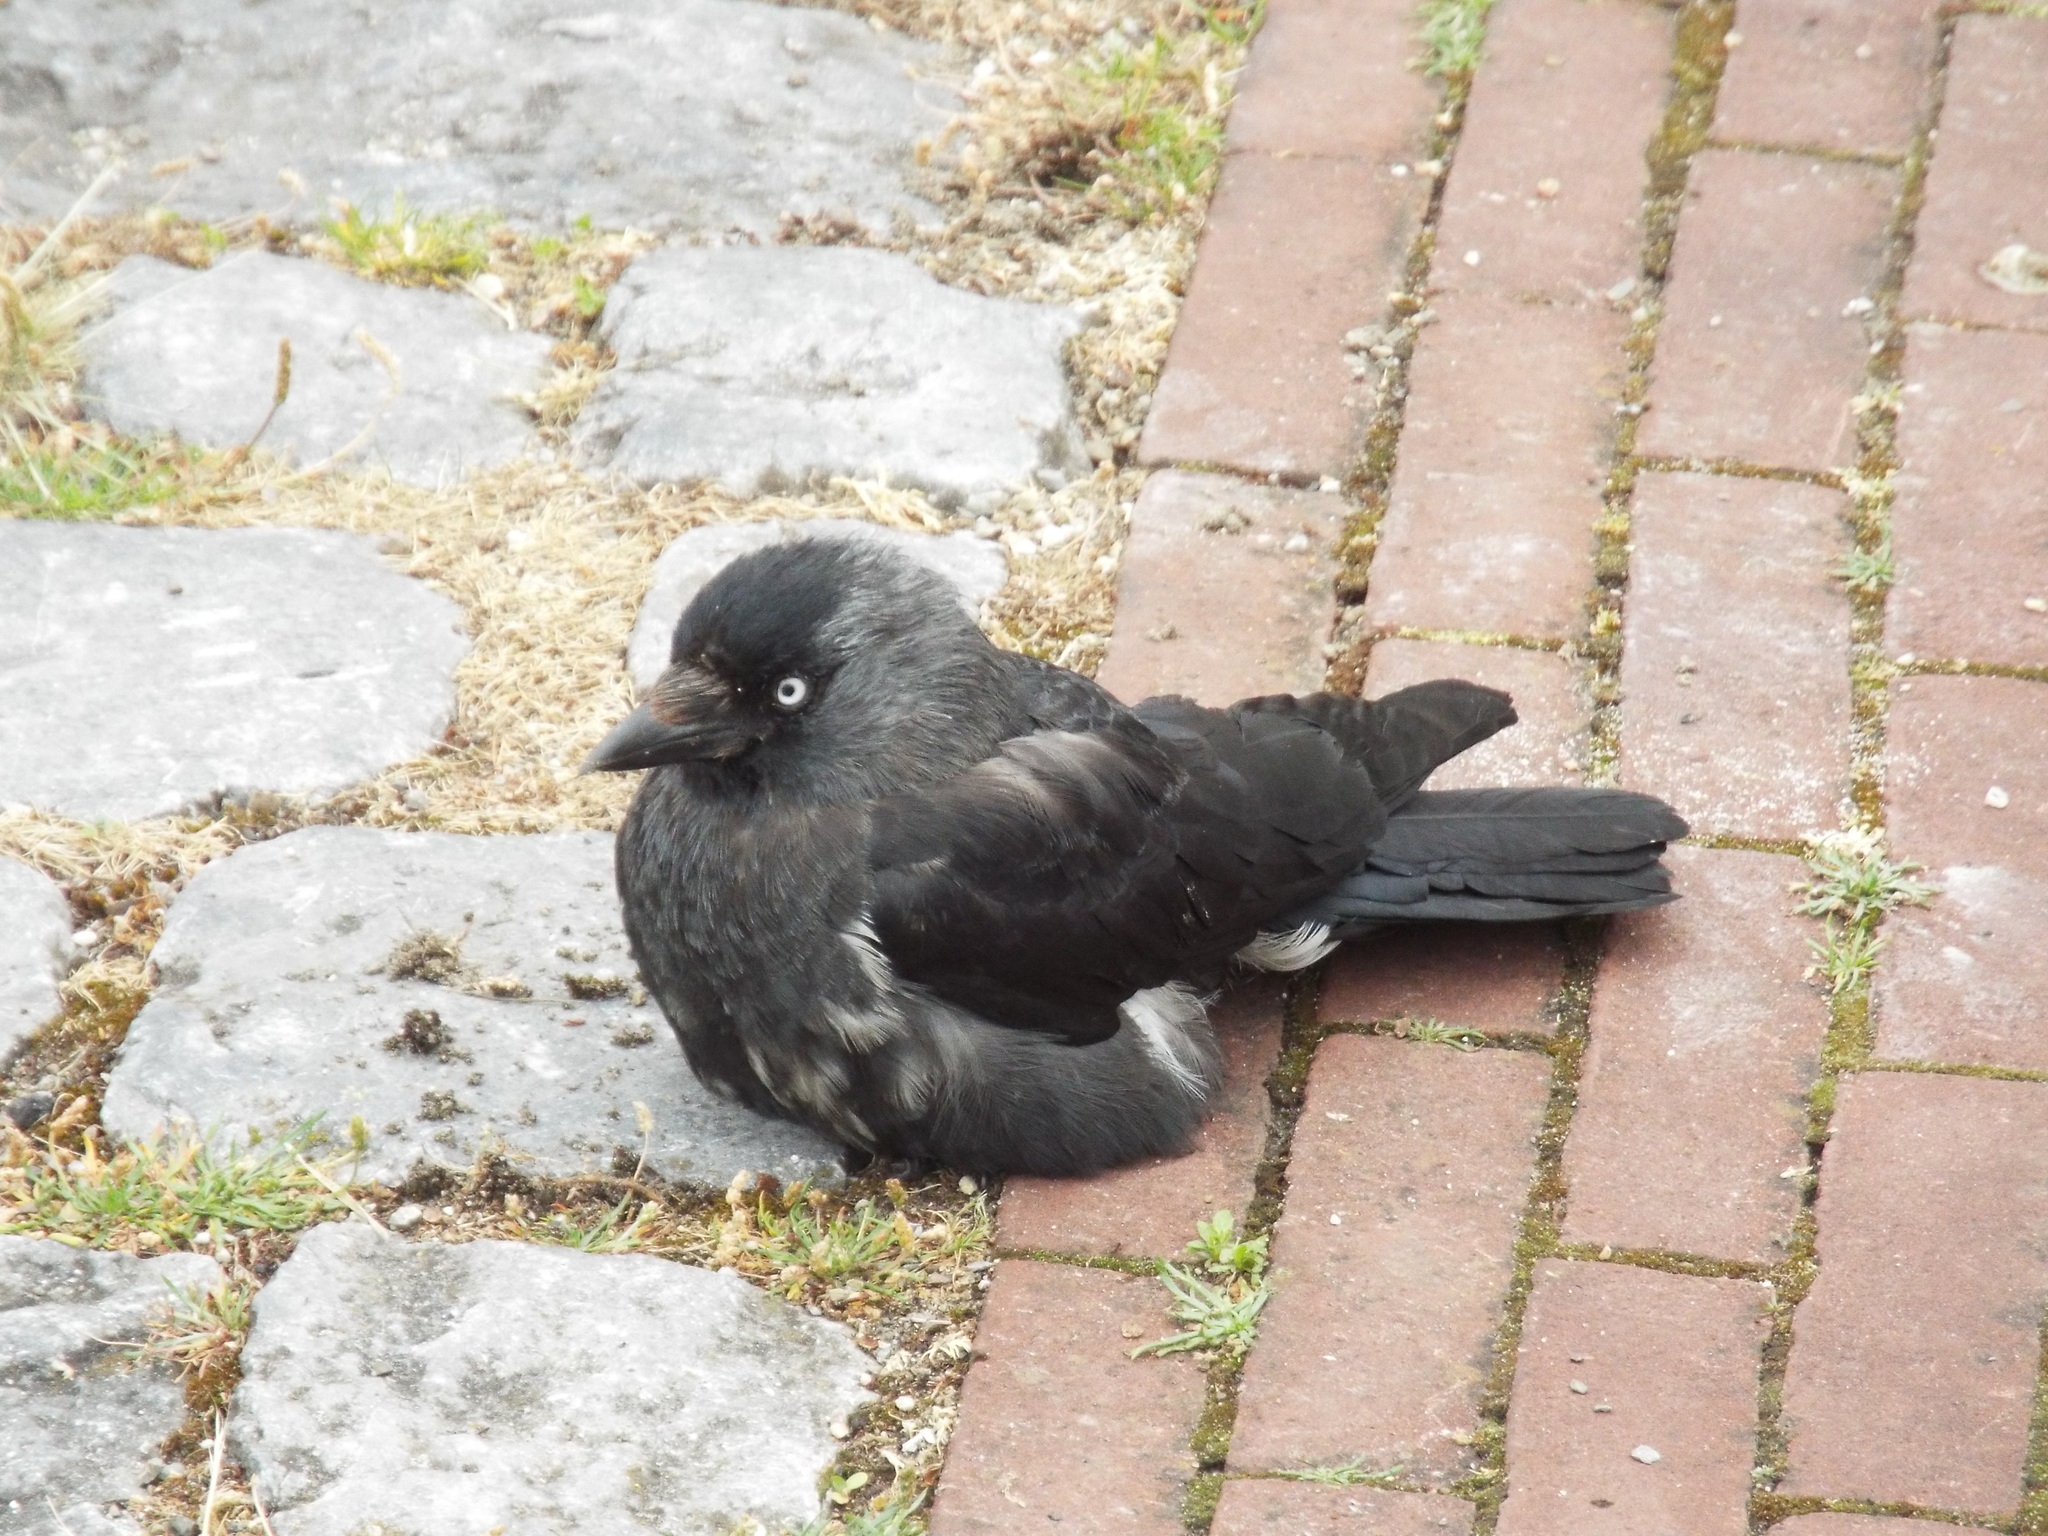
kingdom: Animalia
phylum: Chordata
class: Aves
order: Passeriformes
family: Corvidae
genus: Coloeus
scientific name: Coloeus monedula
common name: Western jackdaw
